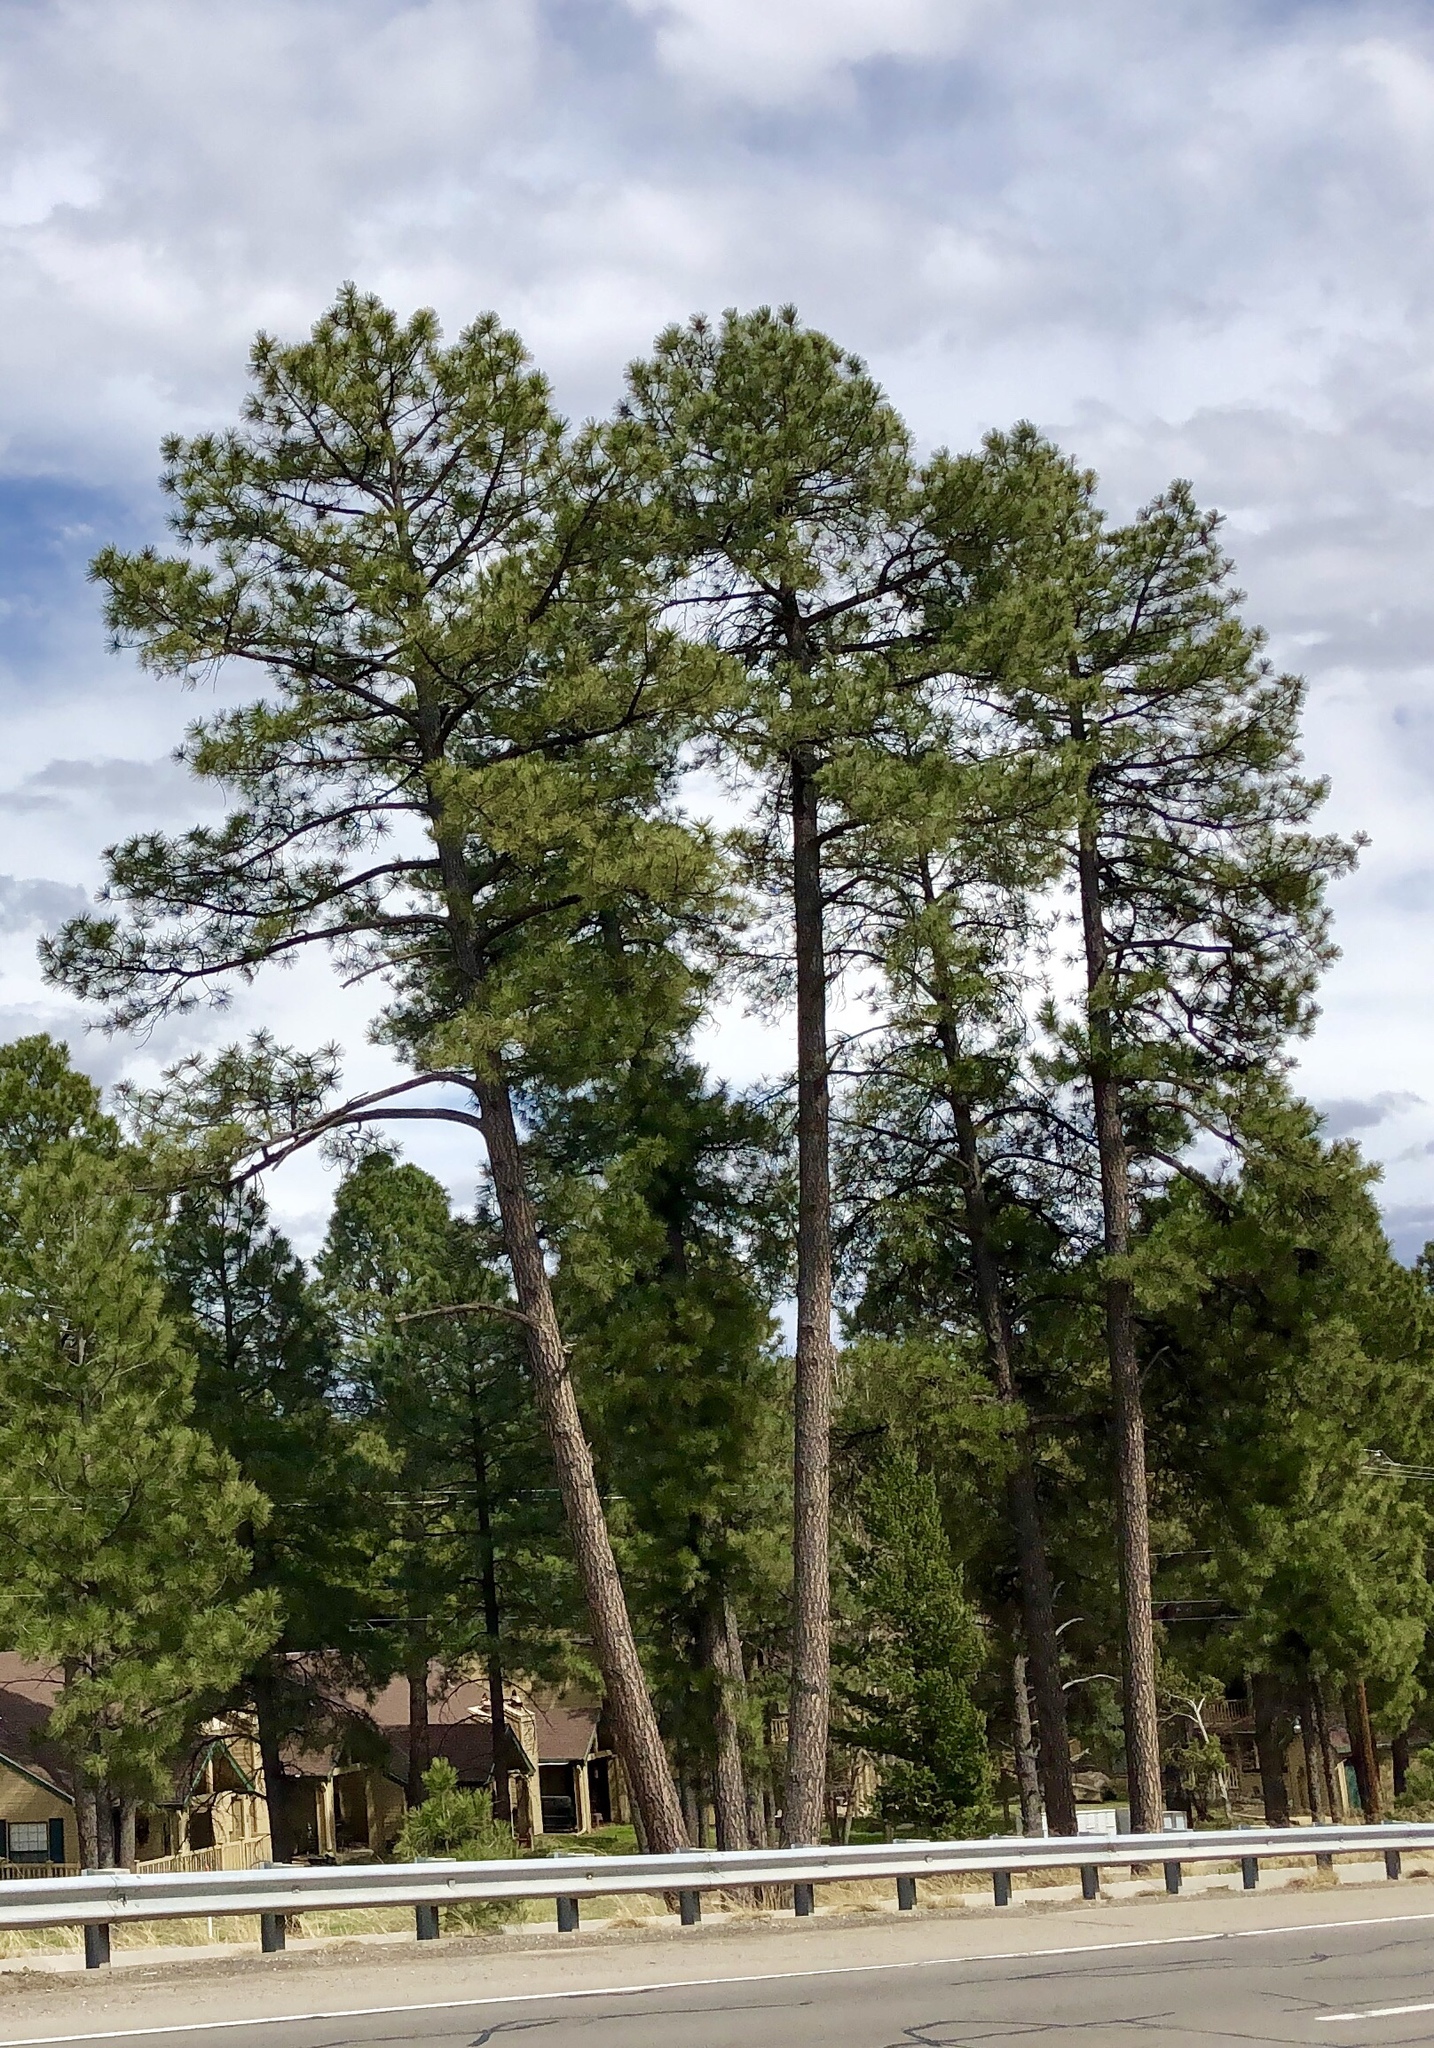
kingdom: Plantae
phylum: Tracheophyta
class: Pinopsida
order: Pinales
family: Pinaceae
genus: Pinus
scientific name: Pinus ponderosa
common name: Western yellow-pine
